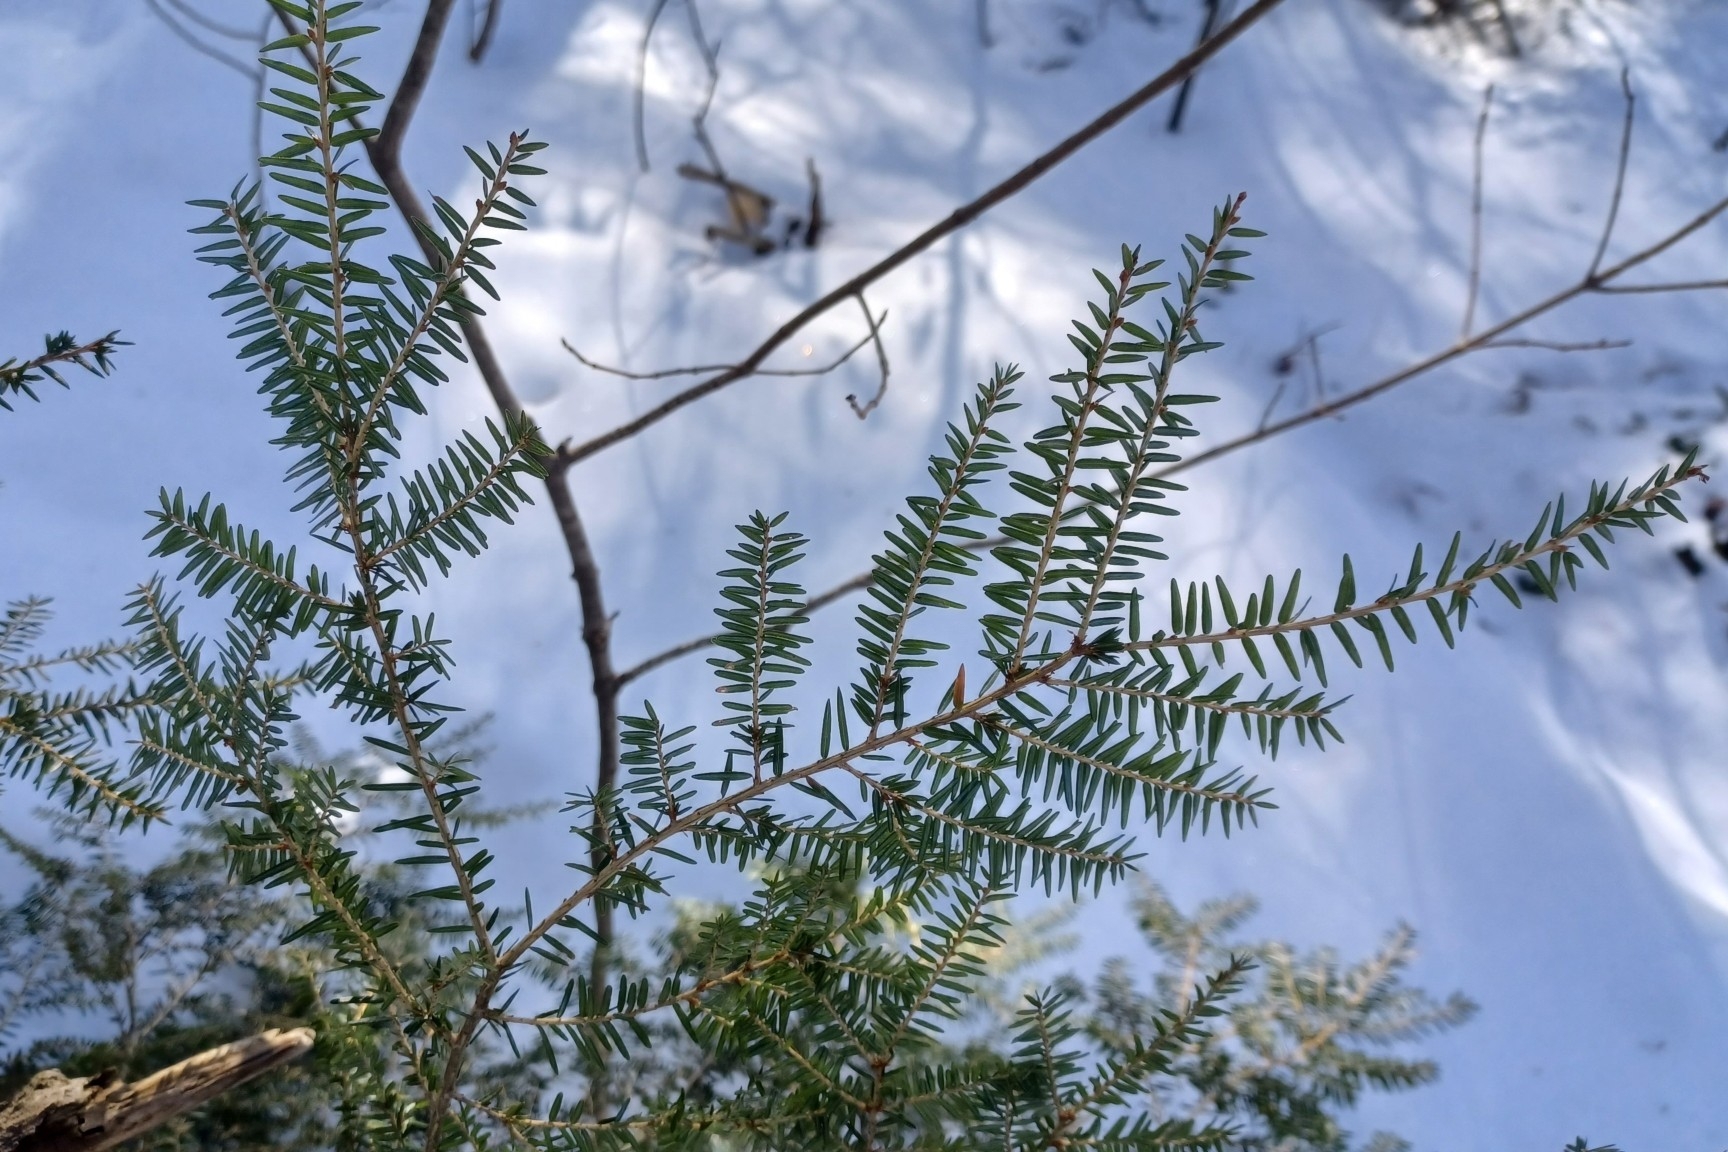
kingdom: Plantae
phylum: Tracheophyta
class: Pinopsida
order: Pinales
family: Pinaceae
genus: Tsuga
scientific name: Tsuga canadensis
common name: Eastern hemlock
